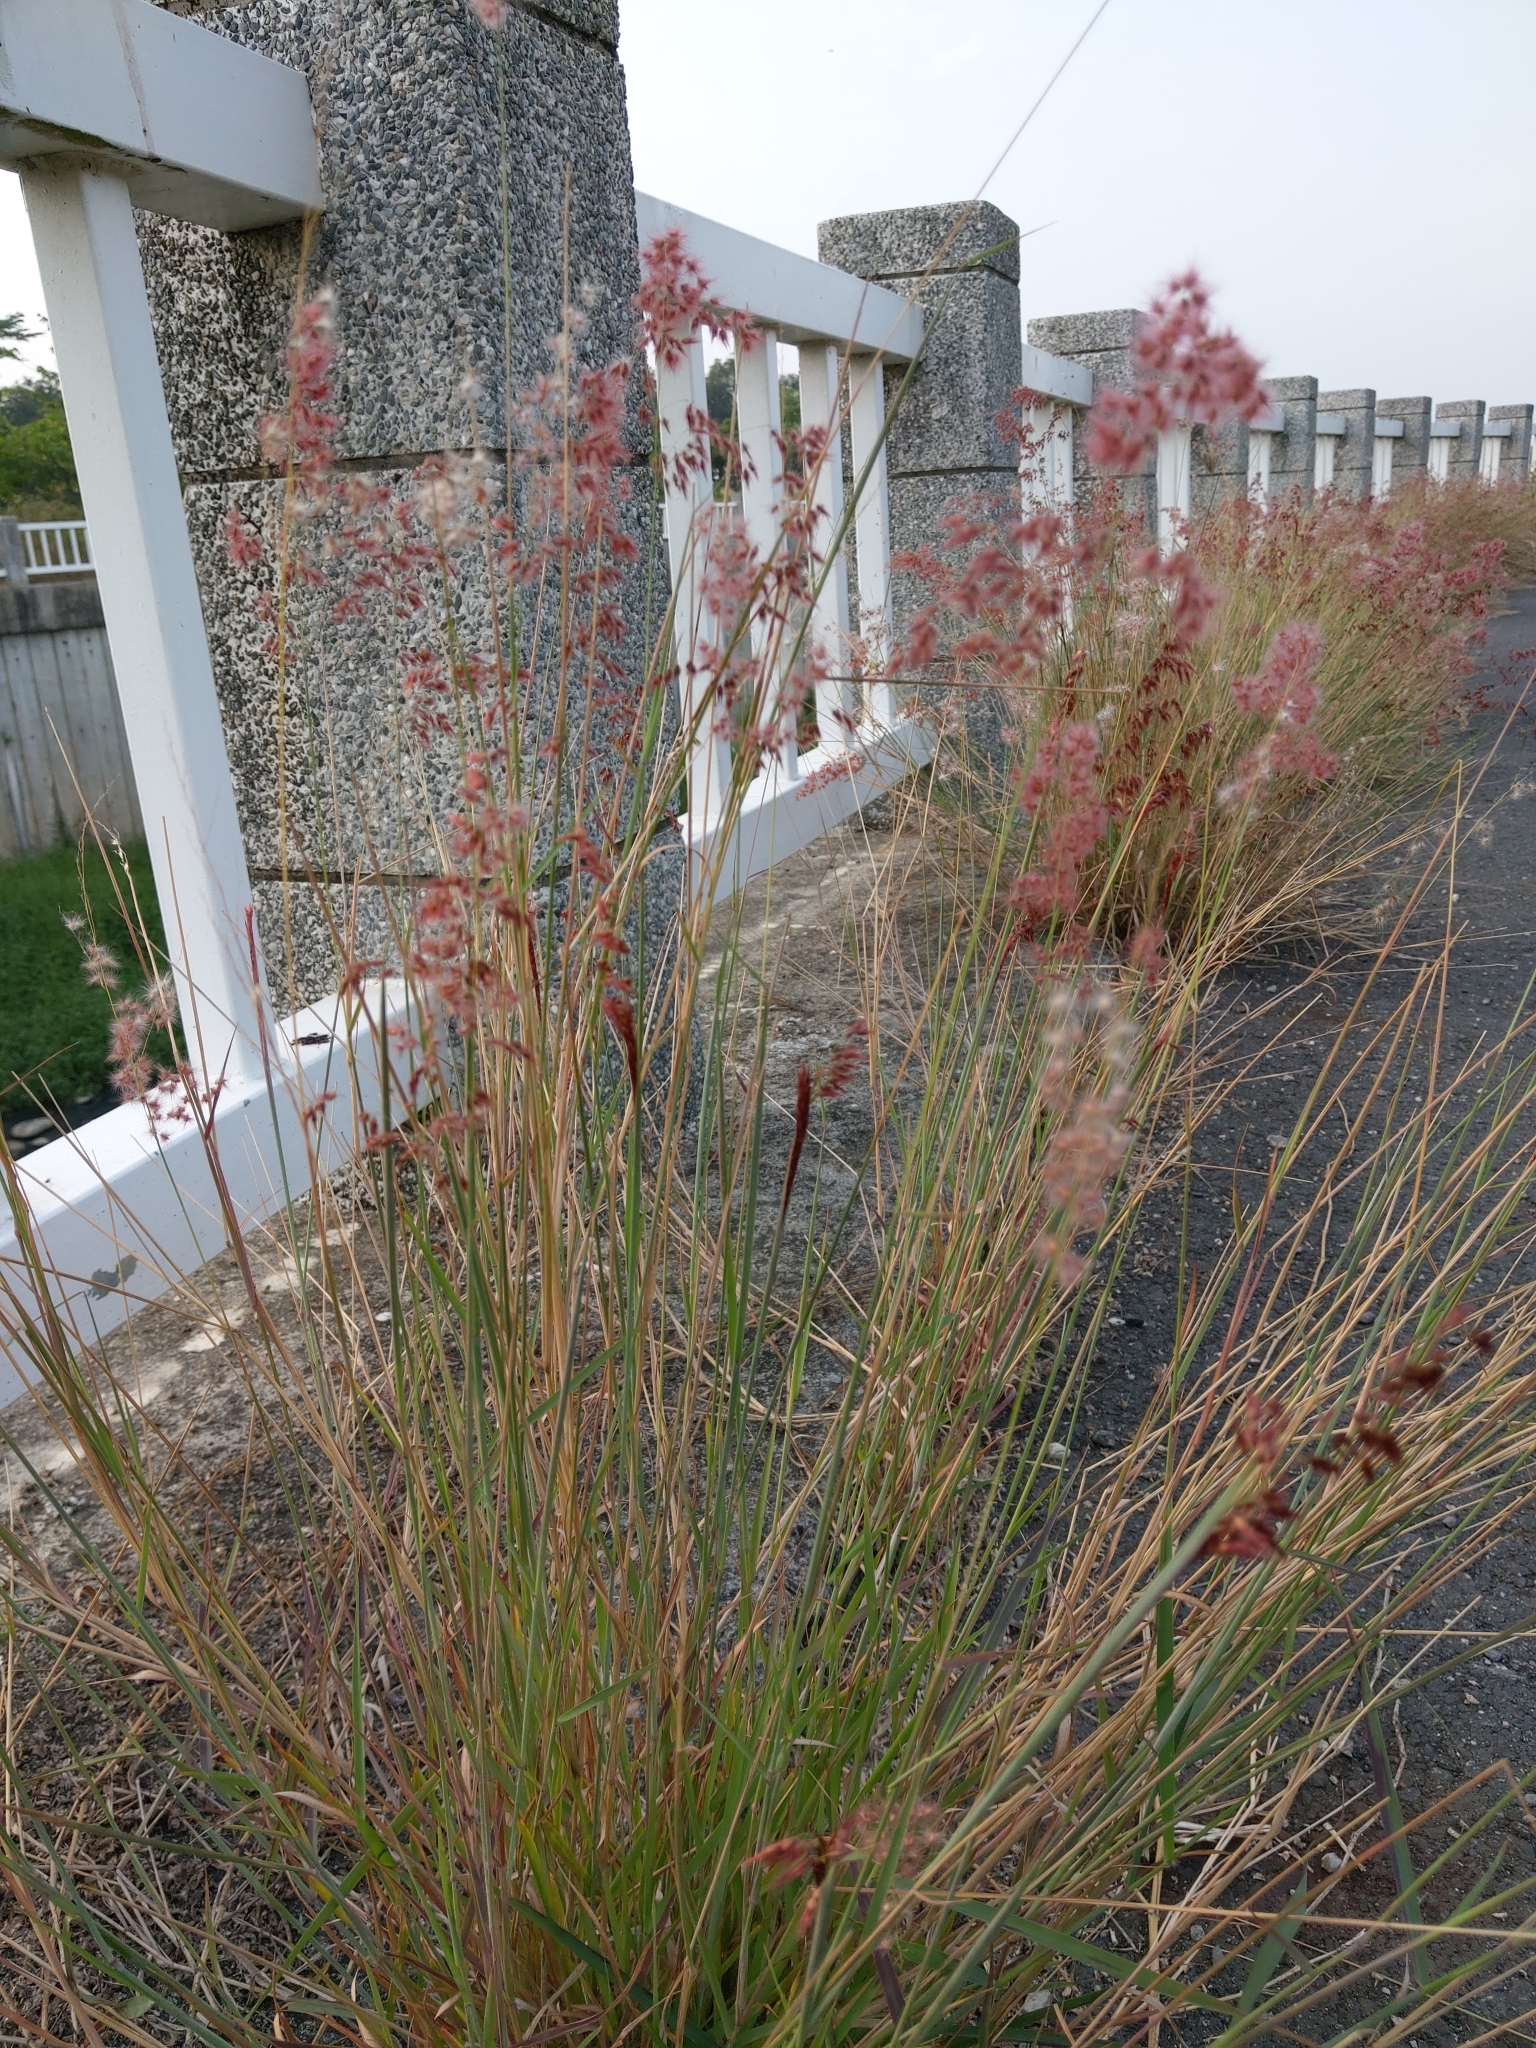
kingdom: Plantae
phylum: Tracheophyta
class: Liliopsida
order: Poales
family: Poaceae
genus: Melinis
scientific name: Melinis repens
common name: Rose natal grass
